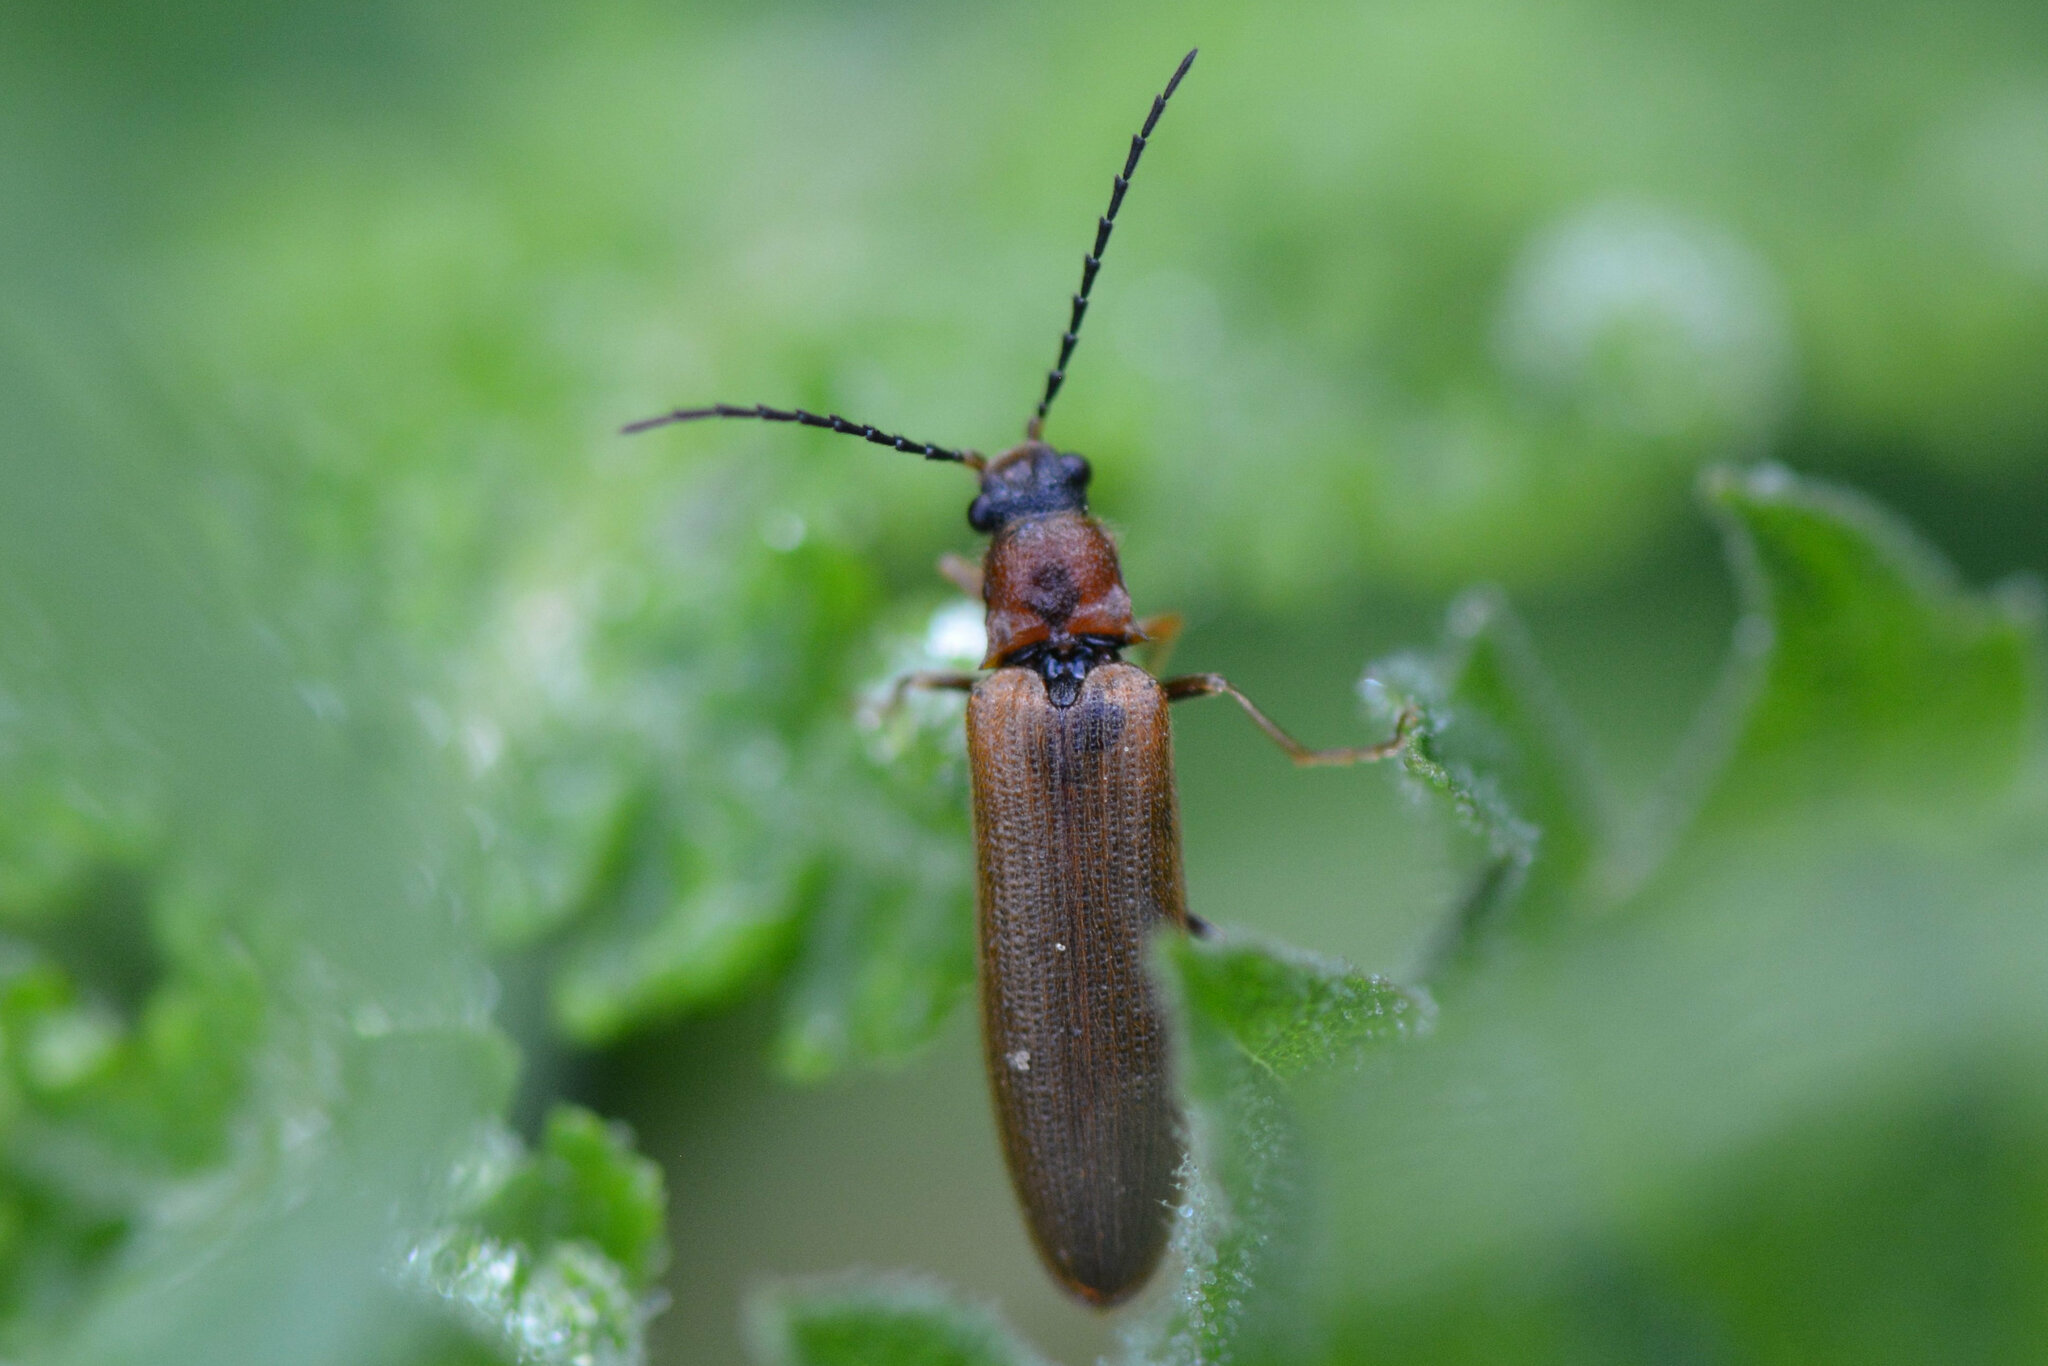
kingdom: Animalia
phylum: Arthropoda
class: Insecta
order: Coleoptera
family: Elateridae
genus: Denticollis
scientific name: Denticollis linearis
